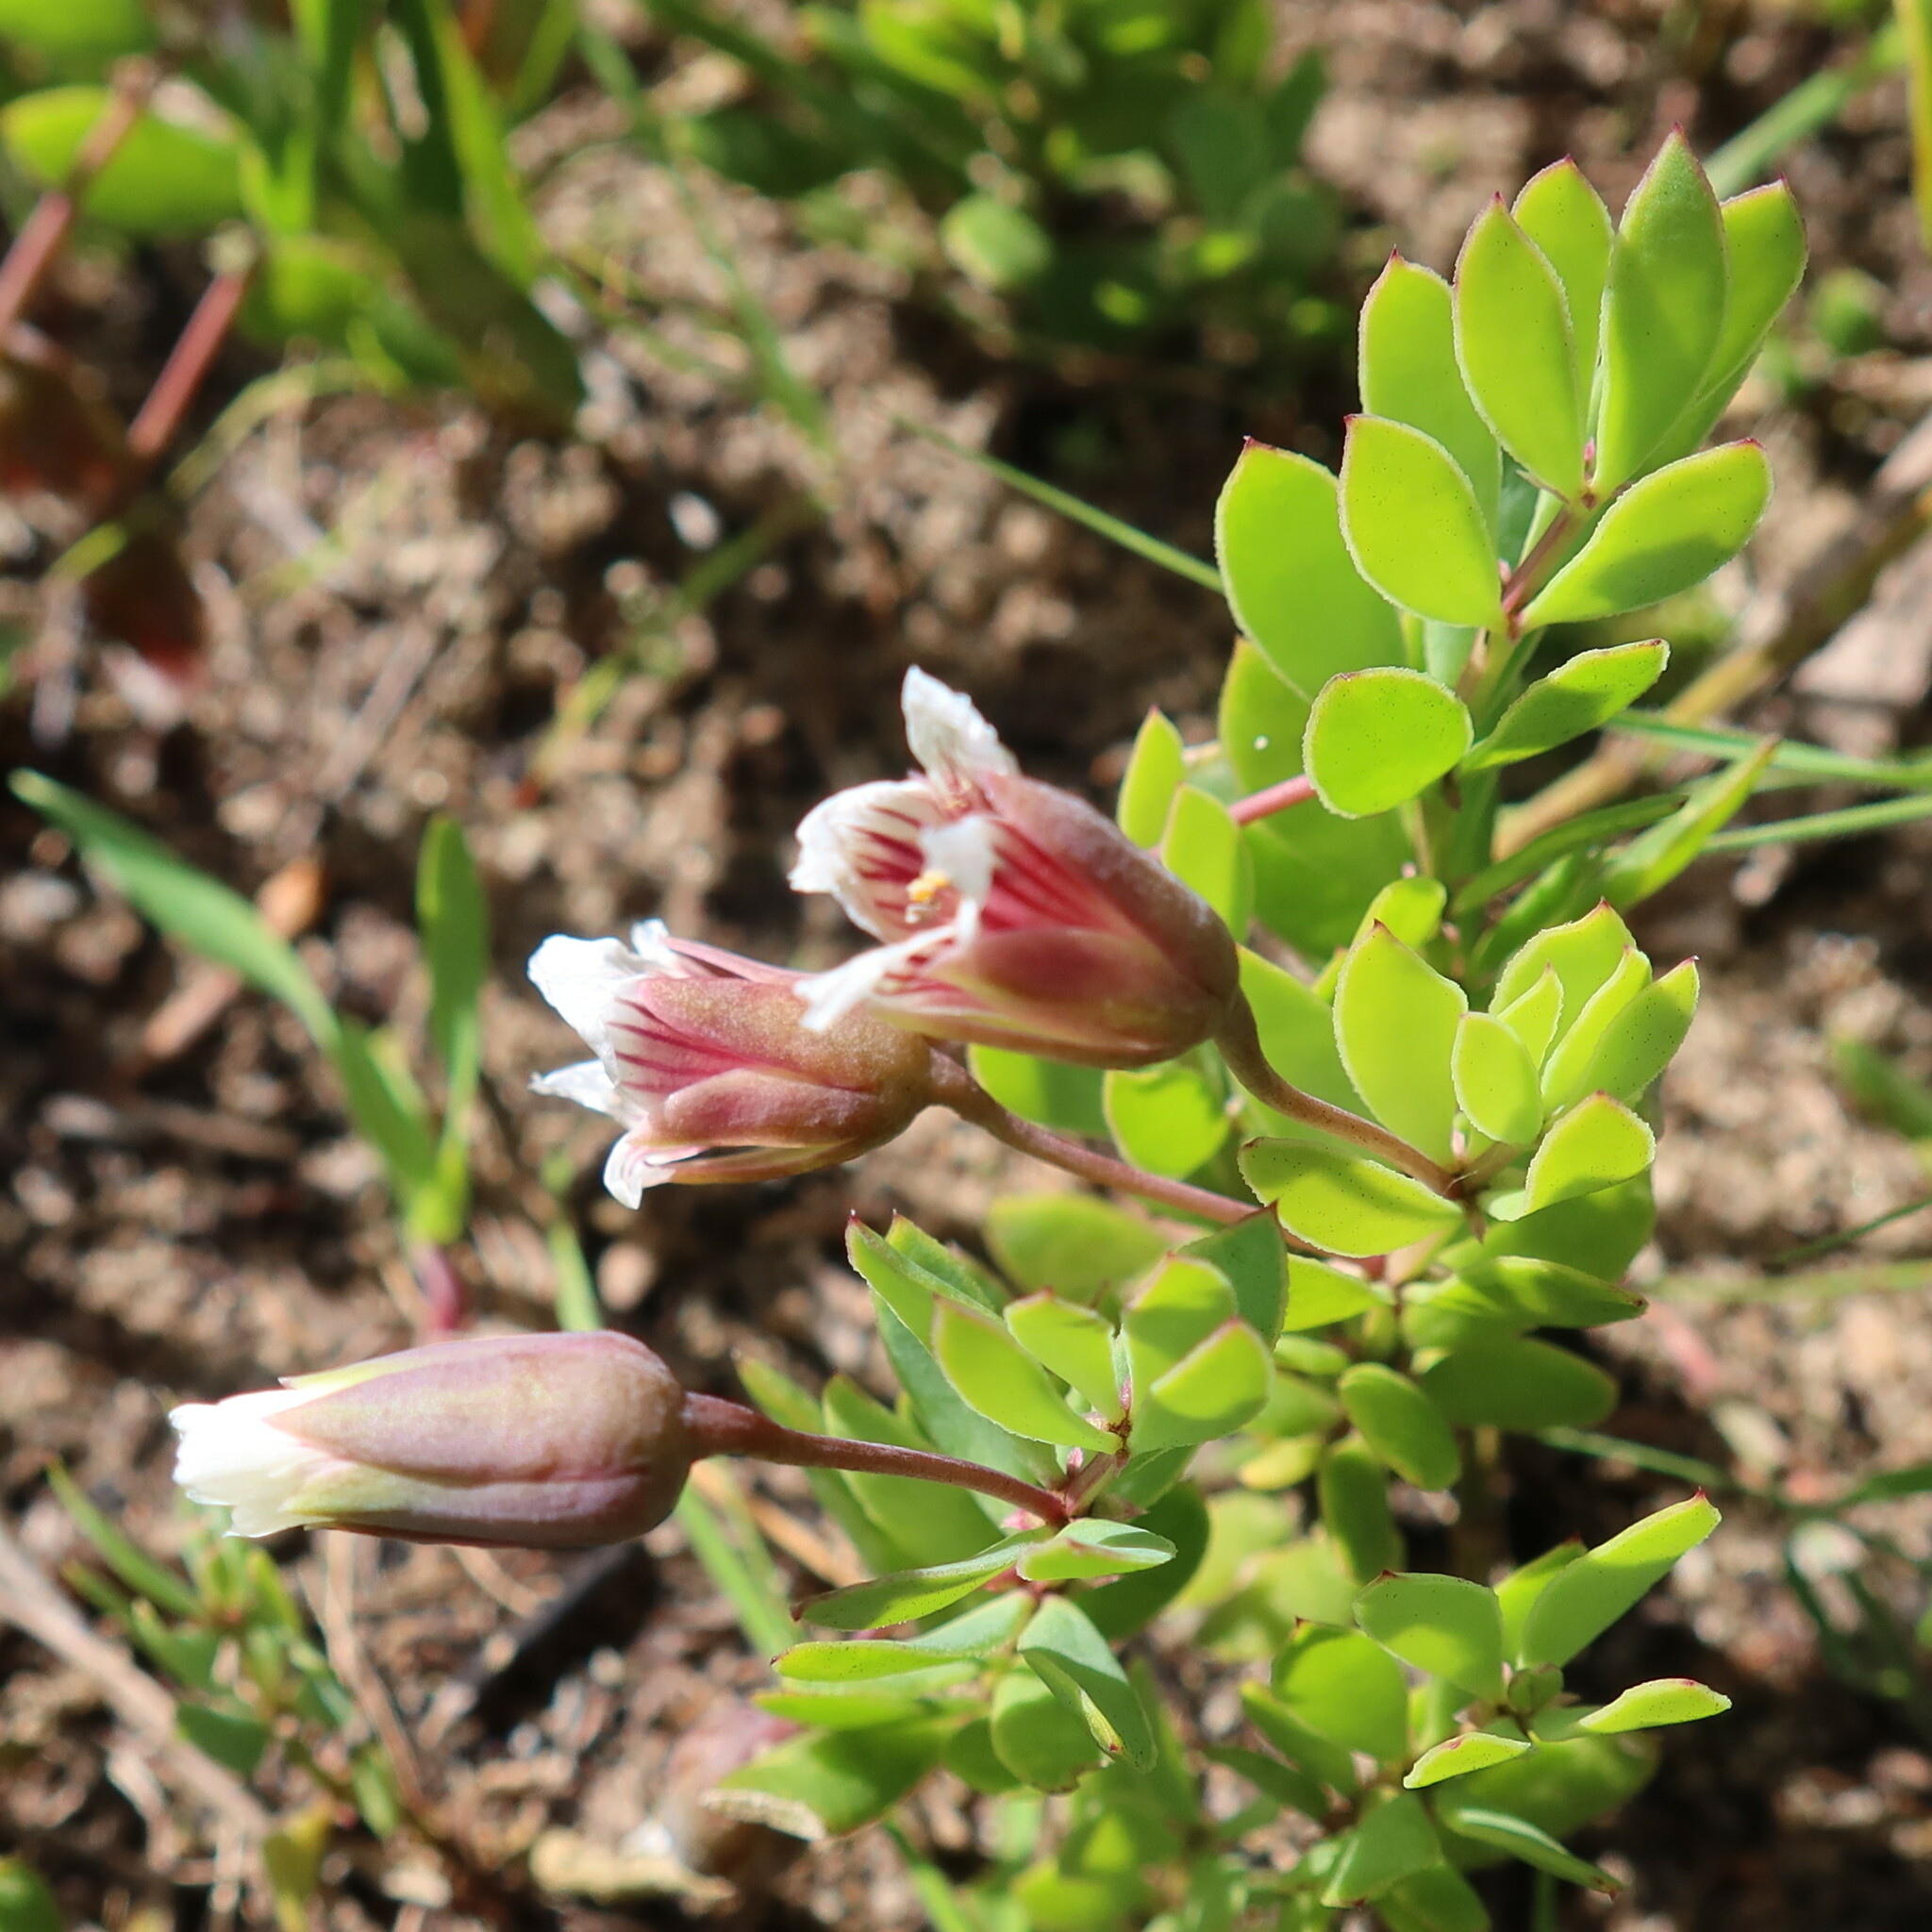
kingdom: Plantae
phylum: Tracheophyta
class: Magnoliopsida
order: Zygophyllales
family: Zygophyllaceae
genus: Roepera
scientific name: Roepera sessilifolia
